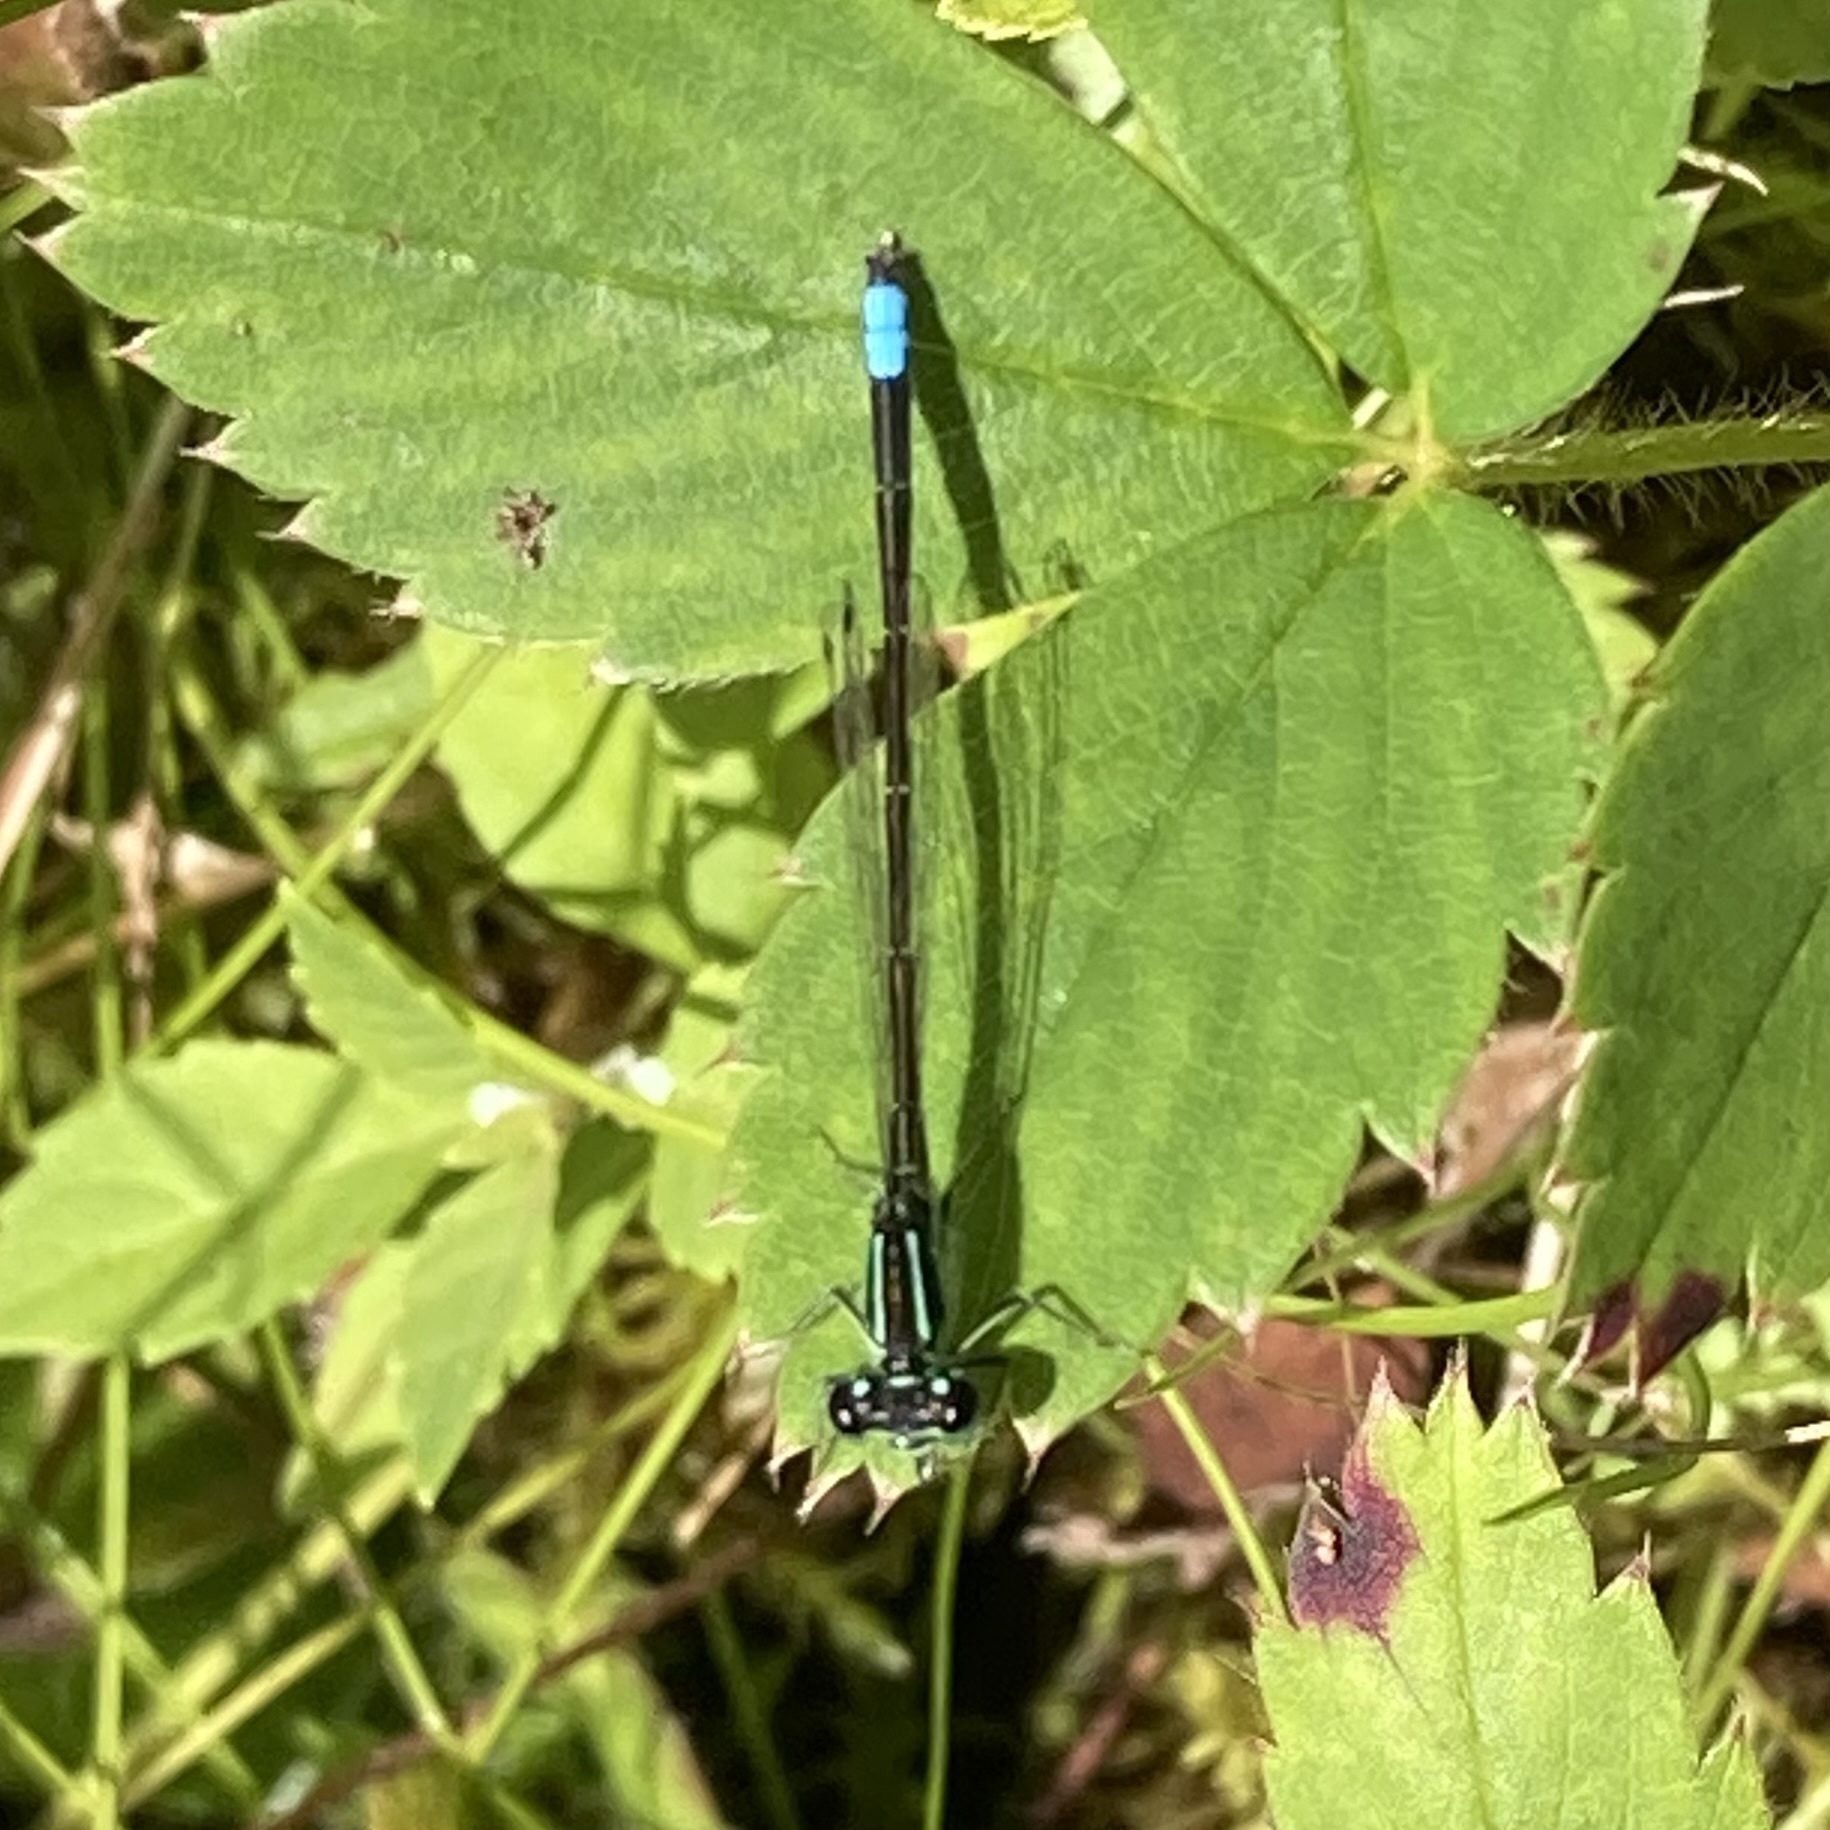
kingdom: Animalia
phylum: Arthropoda
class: Insecta
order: Odonata
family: Coenagrionidae
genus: Ischnura
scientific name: Ischnura verticalis
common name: Eastern forktail
